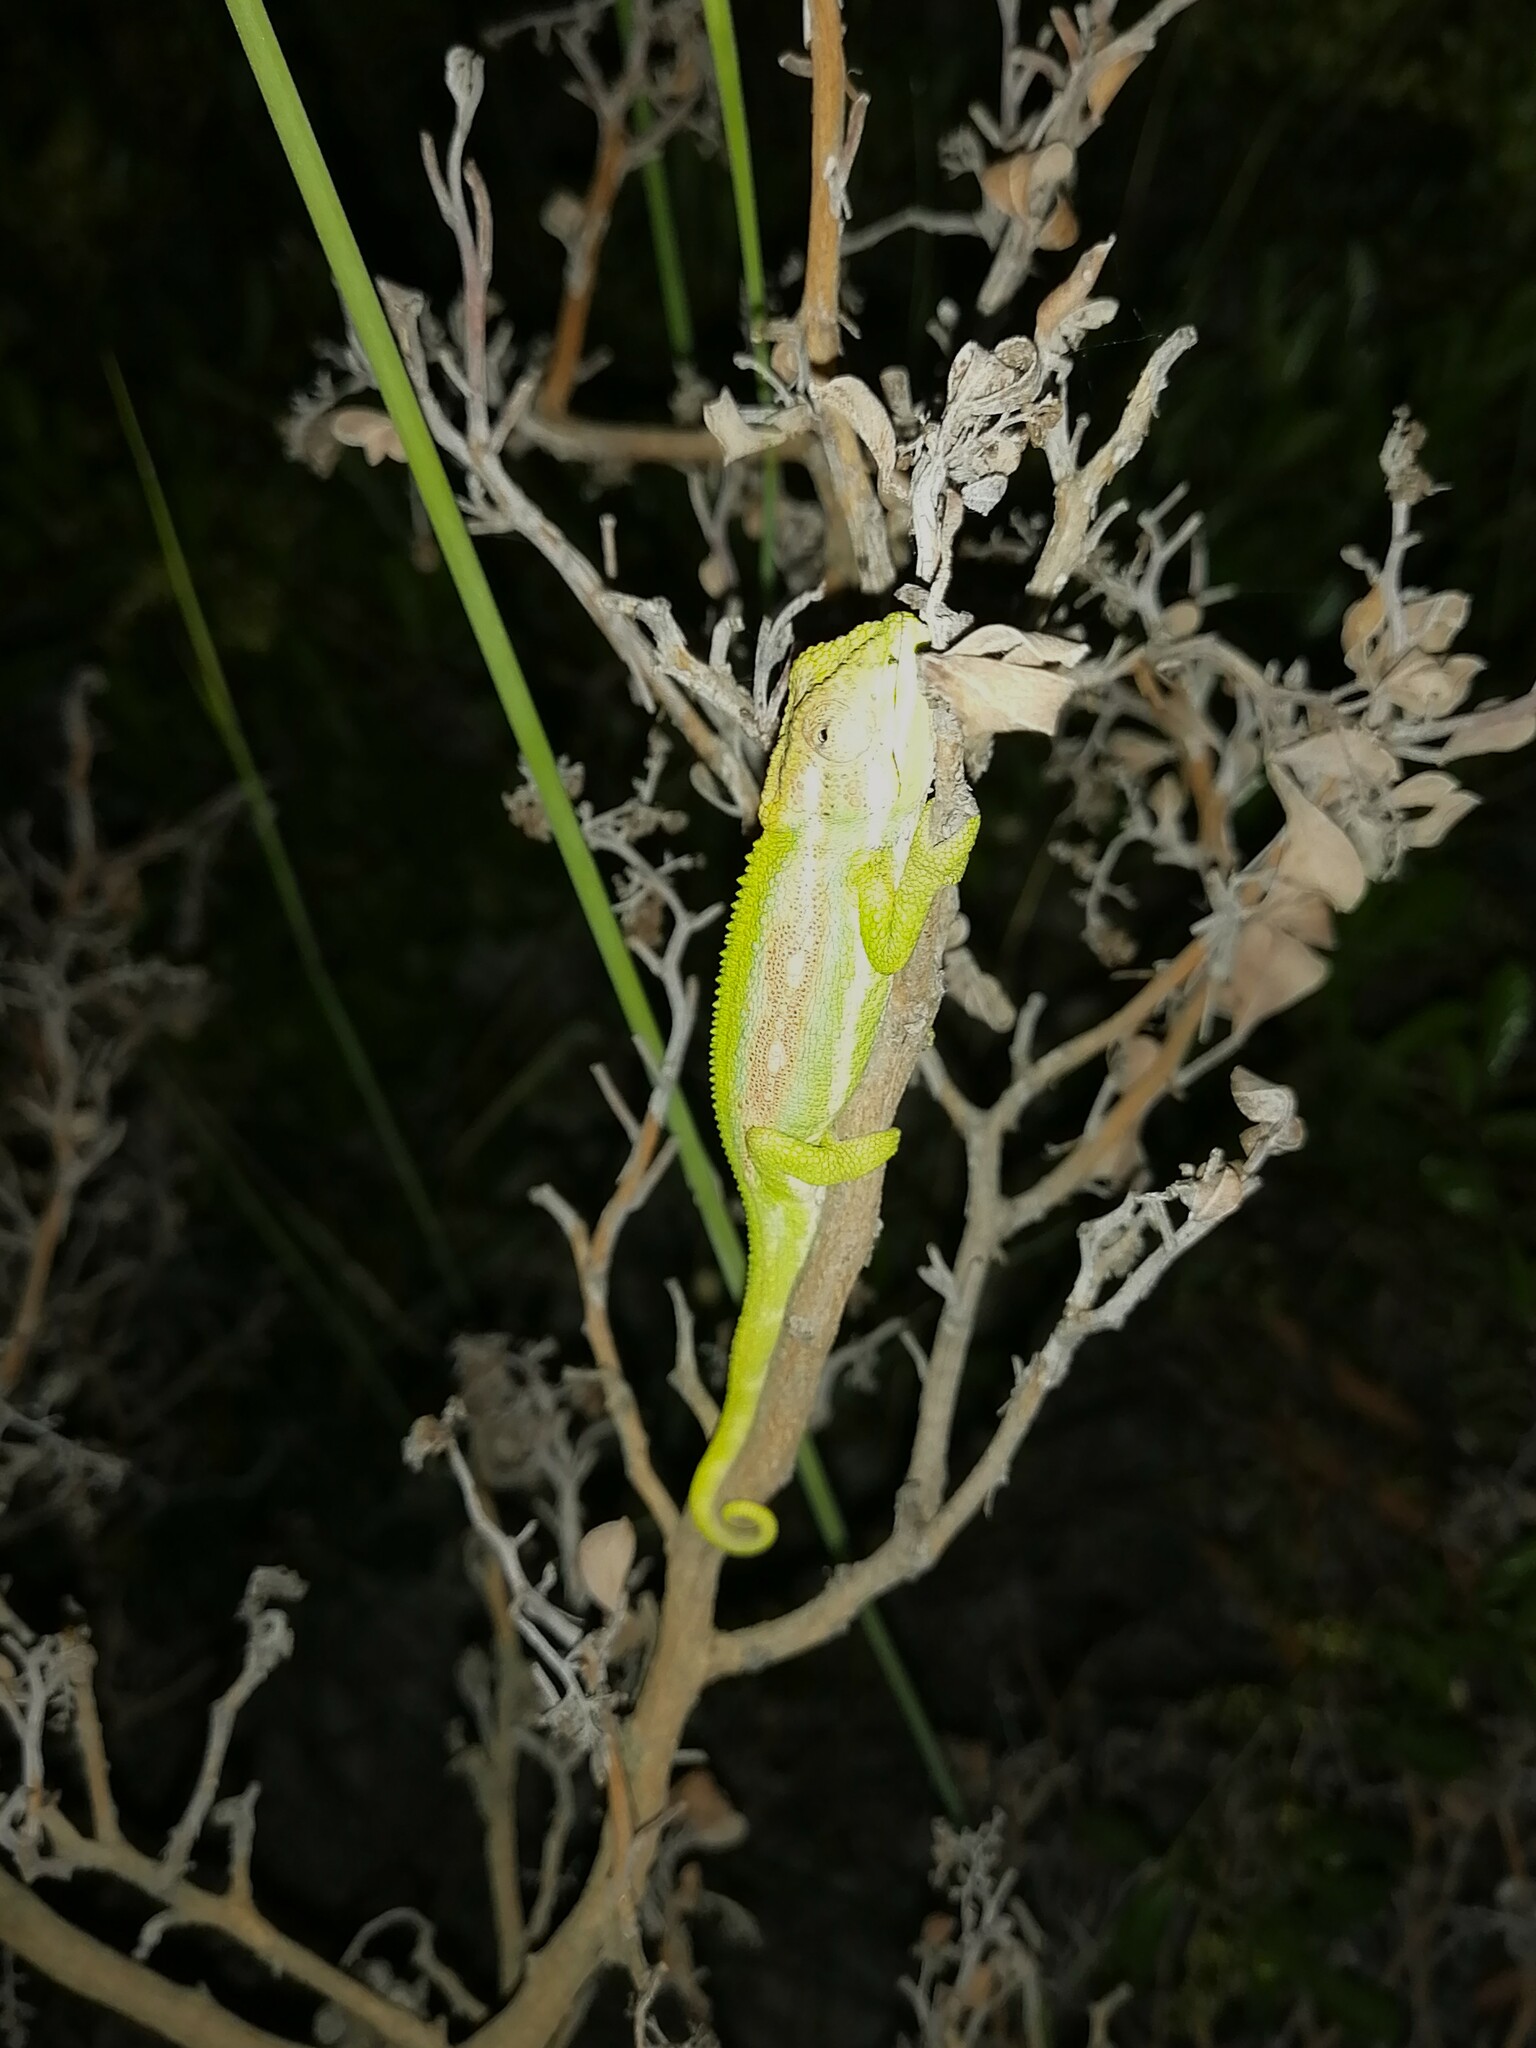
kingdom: Animalia
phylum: Chordata
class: Squamata
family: Chamaeleonidae
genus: Bradypodion
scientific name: Bradypodion pumilum
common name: Cape dwarf chameleon
